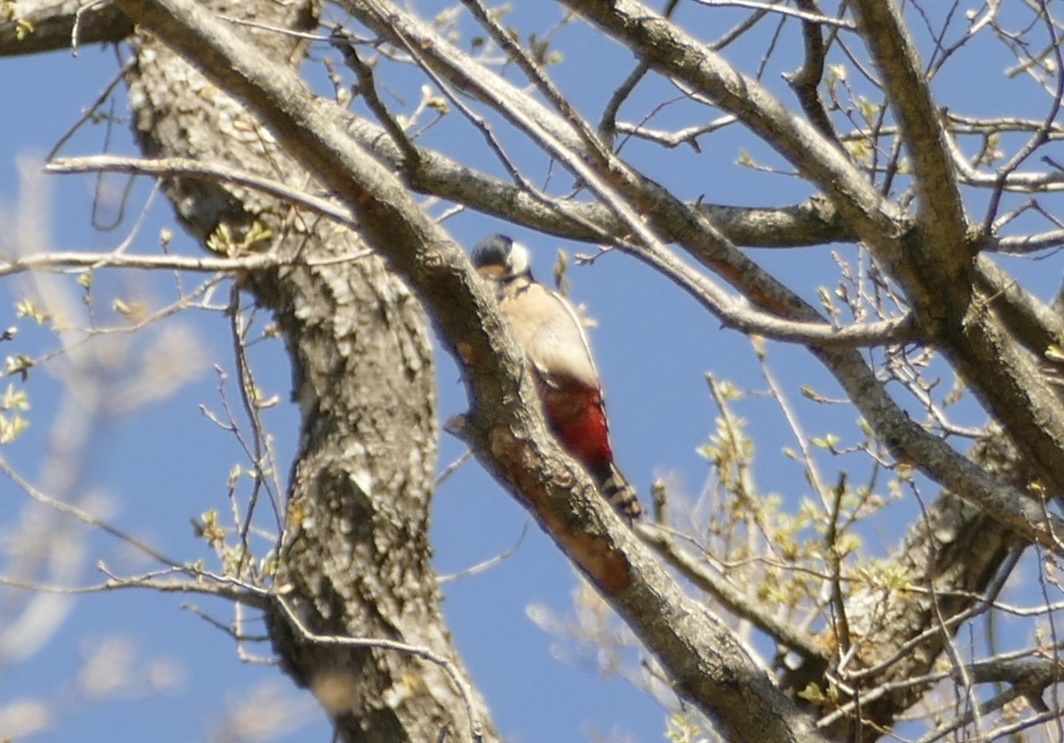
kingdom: Animalia
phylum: Chordata
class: Aves
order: Piciformes
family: Picidae
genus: Dendrocopos
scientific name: Dendrocopos major
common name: Great spotted woodpecker
